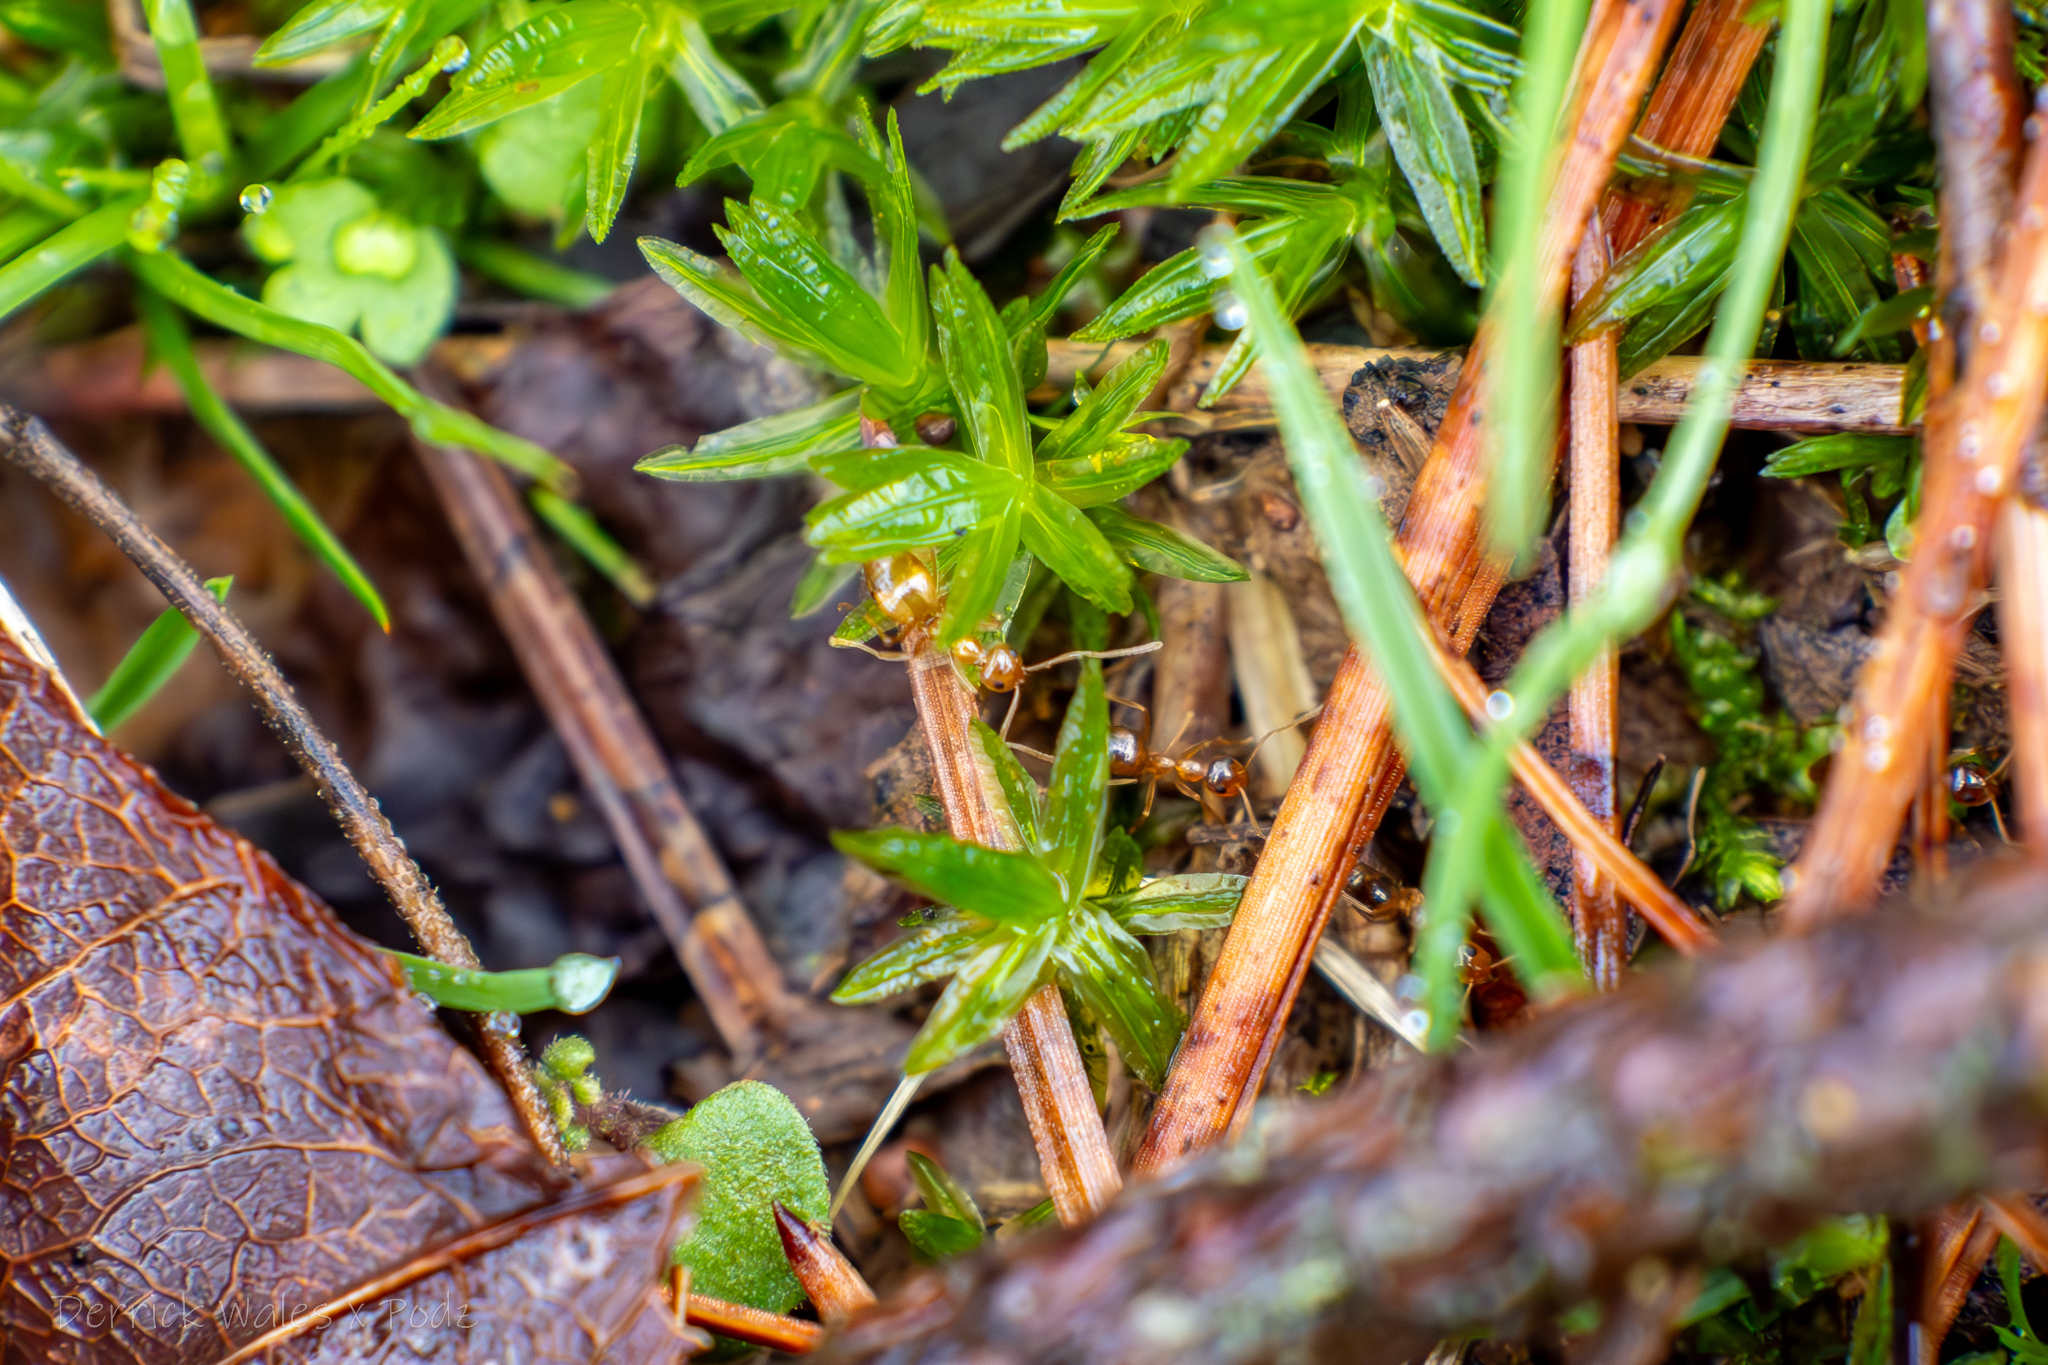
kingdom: Animalia
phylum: Arthropoda
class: Insecta
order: Hymenoptera
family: Formicidae
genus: Prenolepis
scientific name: Prenolepis imparis
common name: Small honey ant
